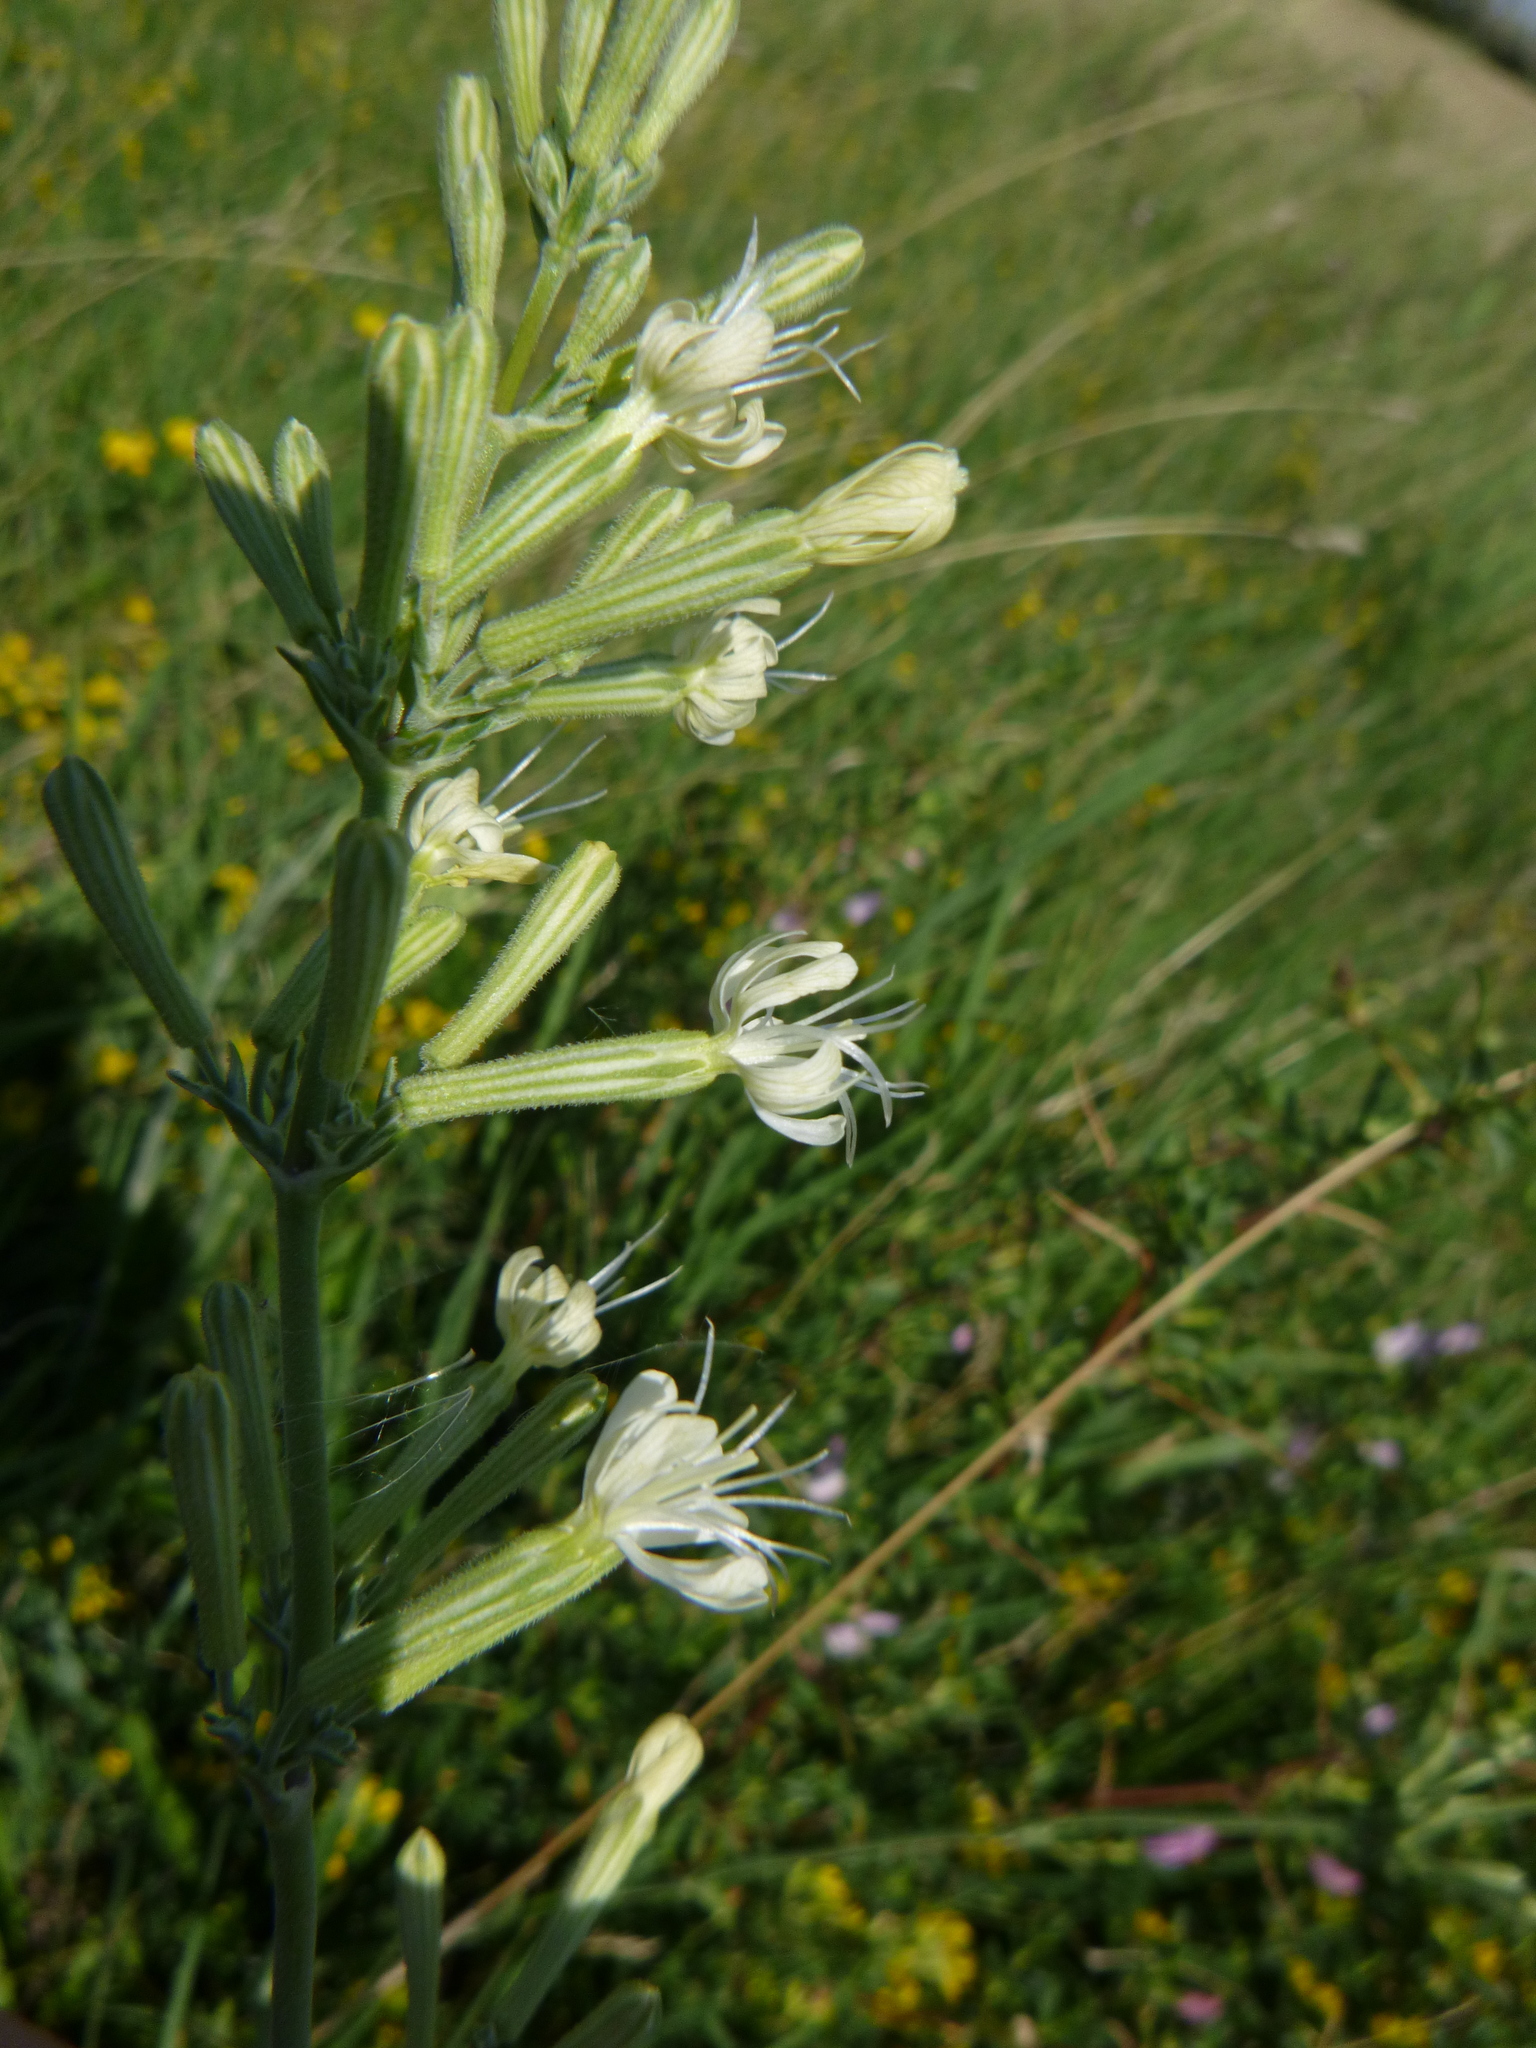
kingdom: Plantae
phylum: Tracheophyta
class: Magnoliopsida
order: Caryophyllales
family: Caryophyllaceae
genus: Silene
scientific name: Silene multiflora
